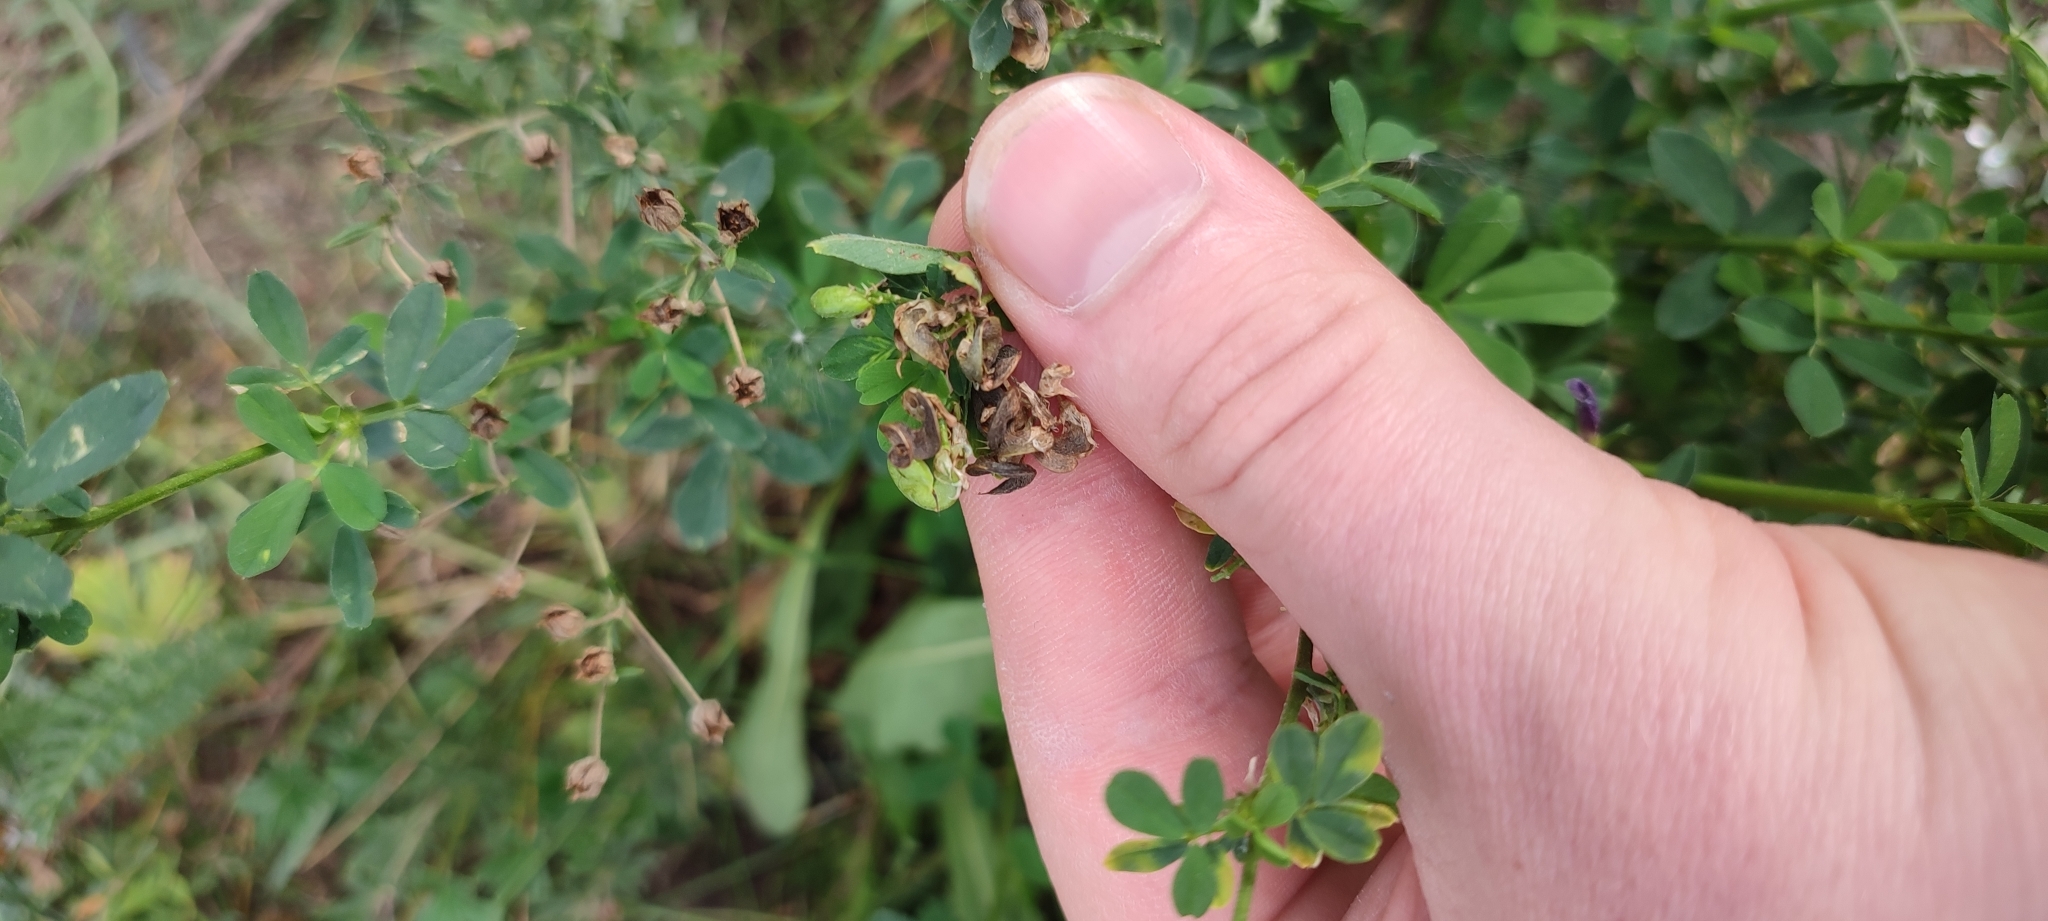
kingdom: Plantae
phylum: Tracheophyta
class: Magnoliopsida
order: Fabales
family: Fabaceae
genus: Medicago
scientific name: Medicago varia
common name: Sand lucerne
